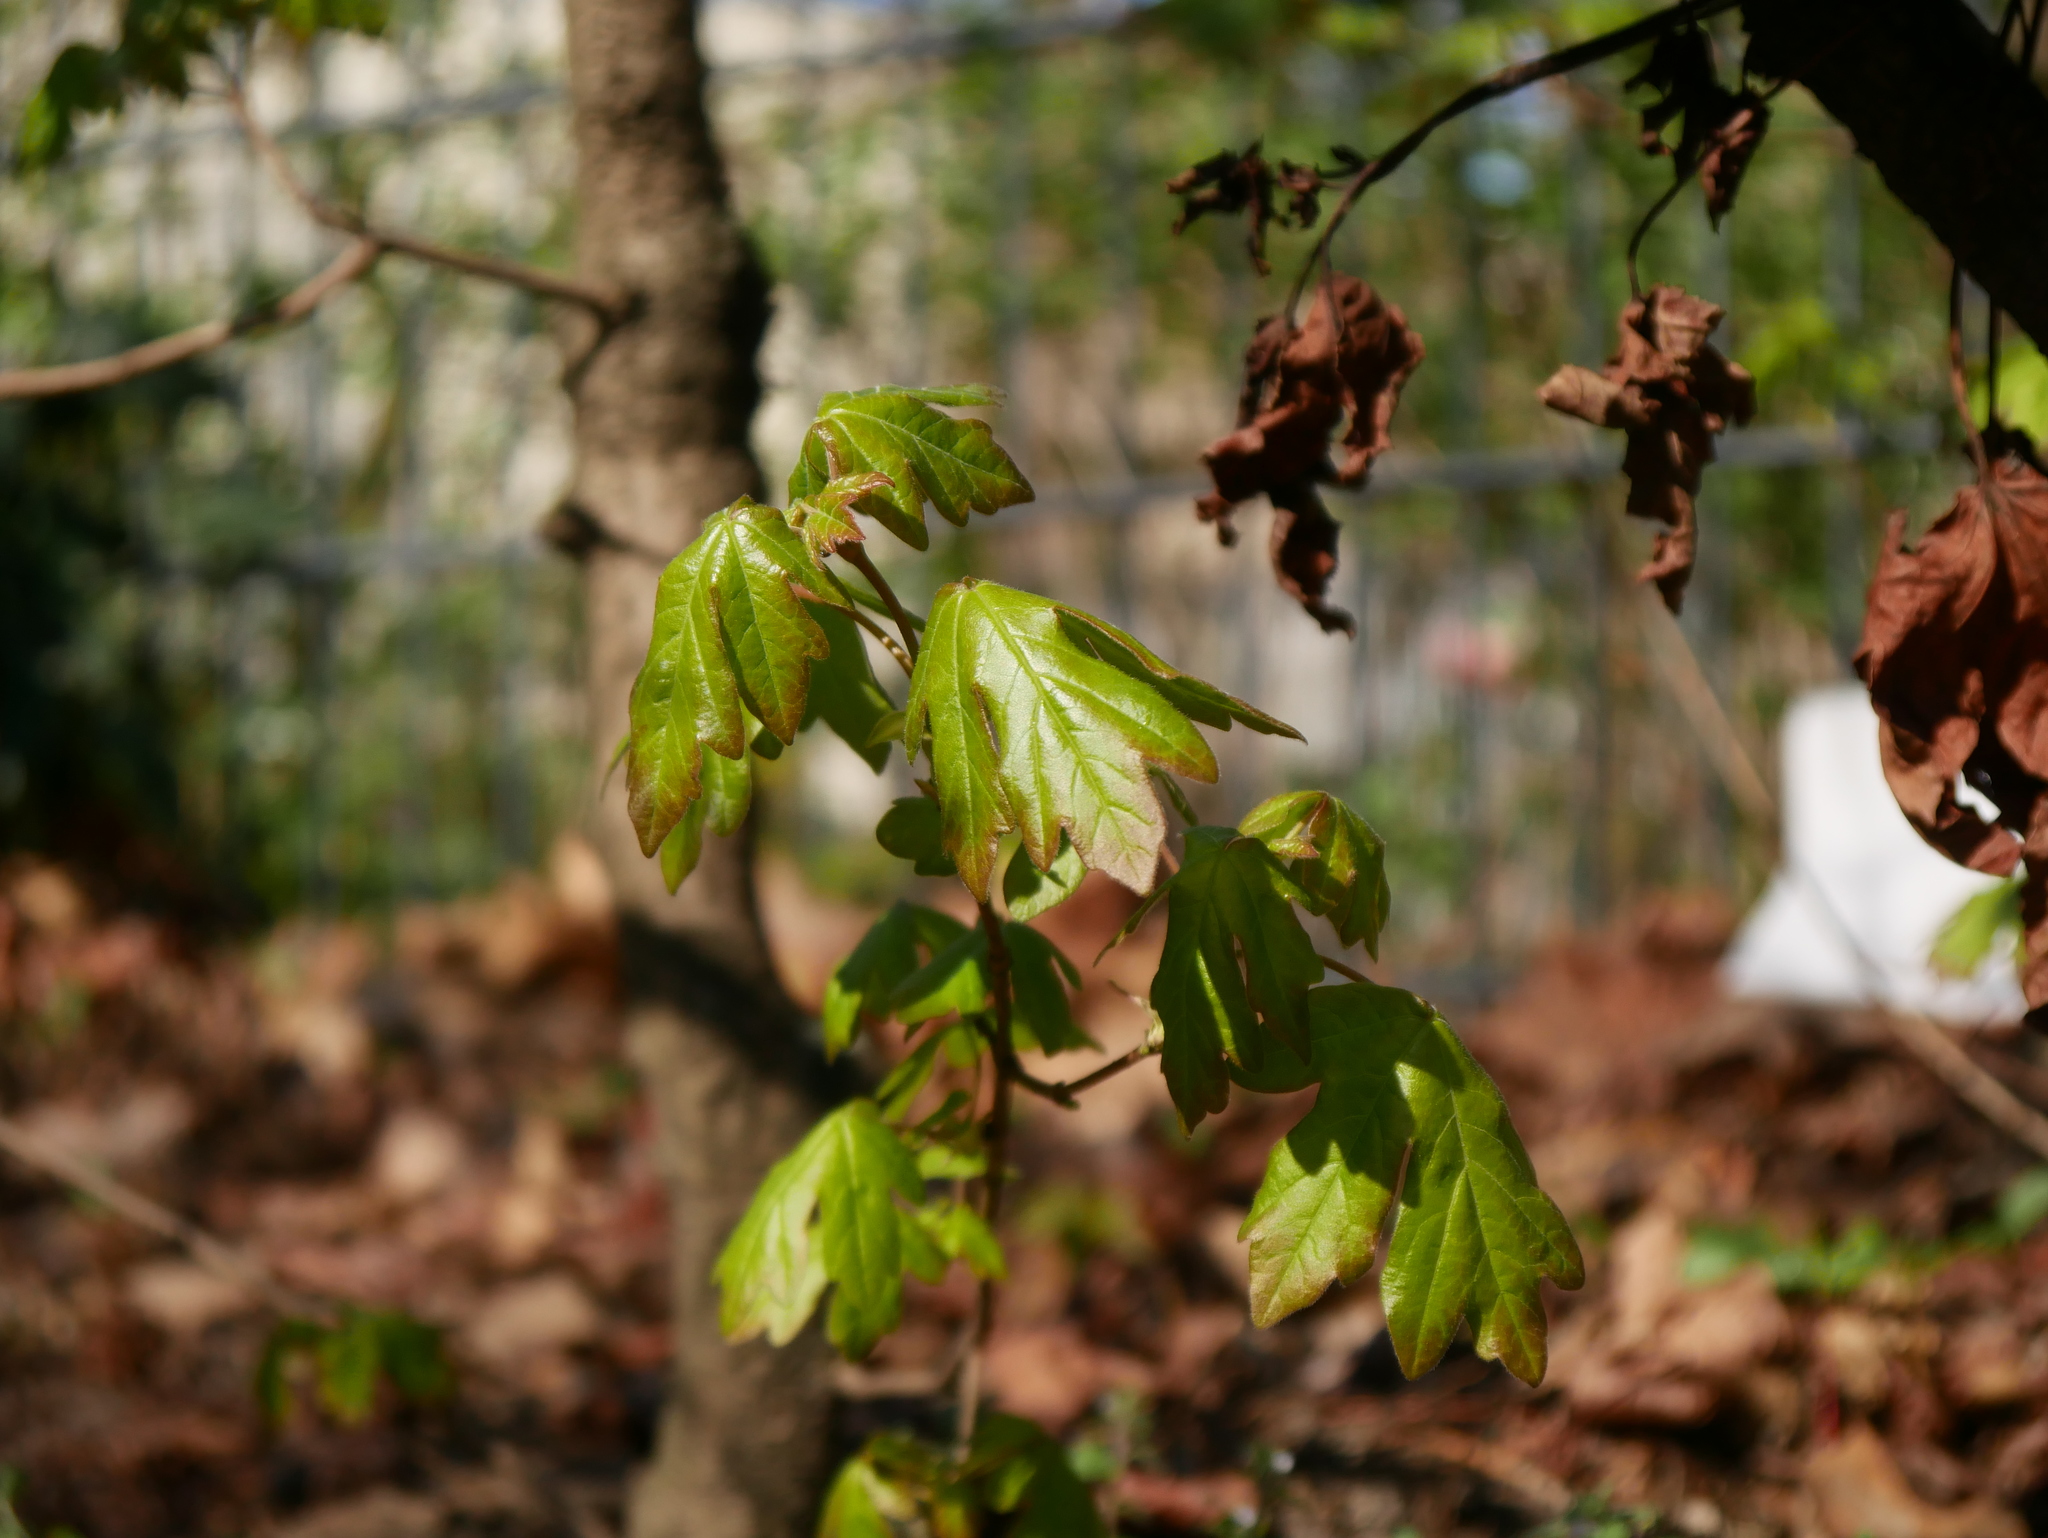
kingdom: Plantae
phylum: Tracheophyta
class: Magnoliopsida
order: Sapindales
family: Sapindaceae
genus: Acer
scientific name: Acer campestre
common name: Field maple
